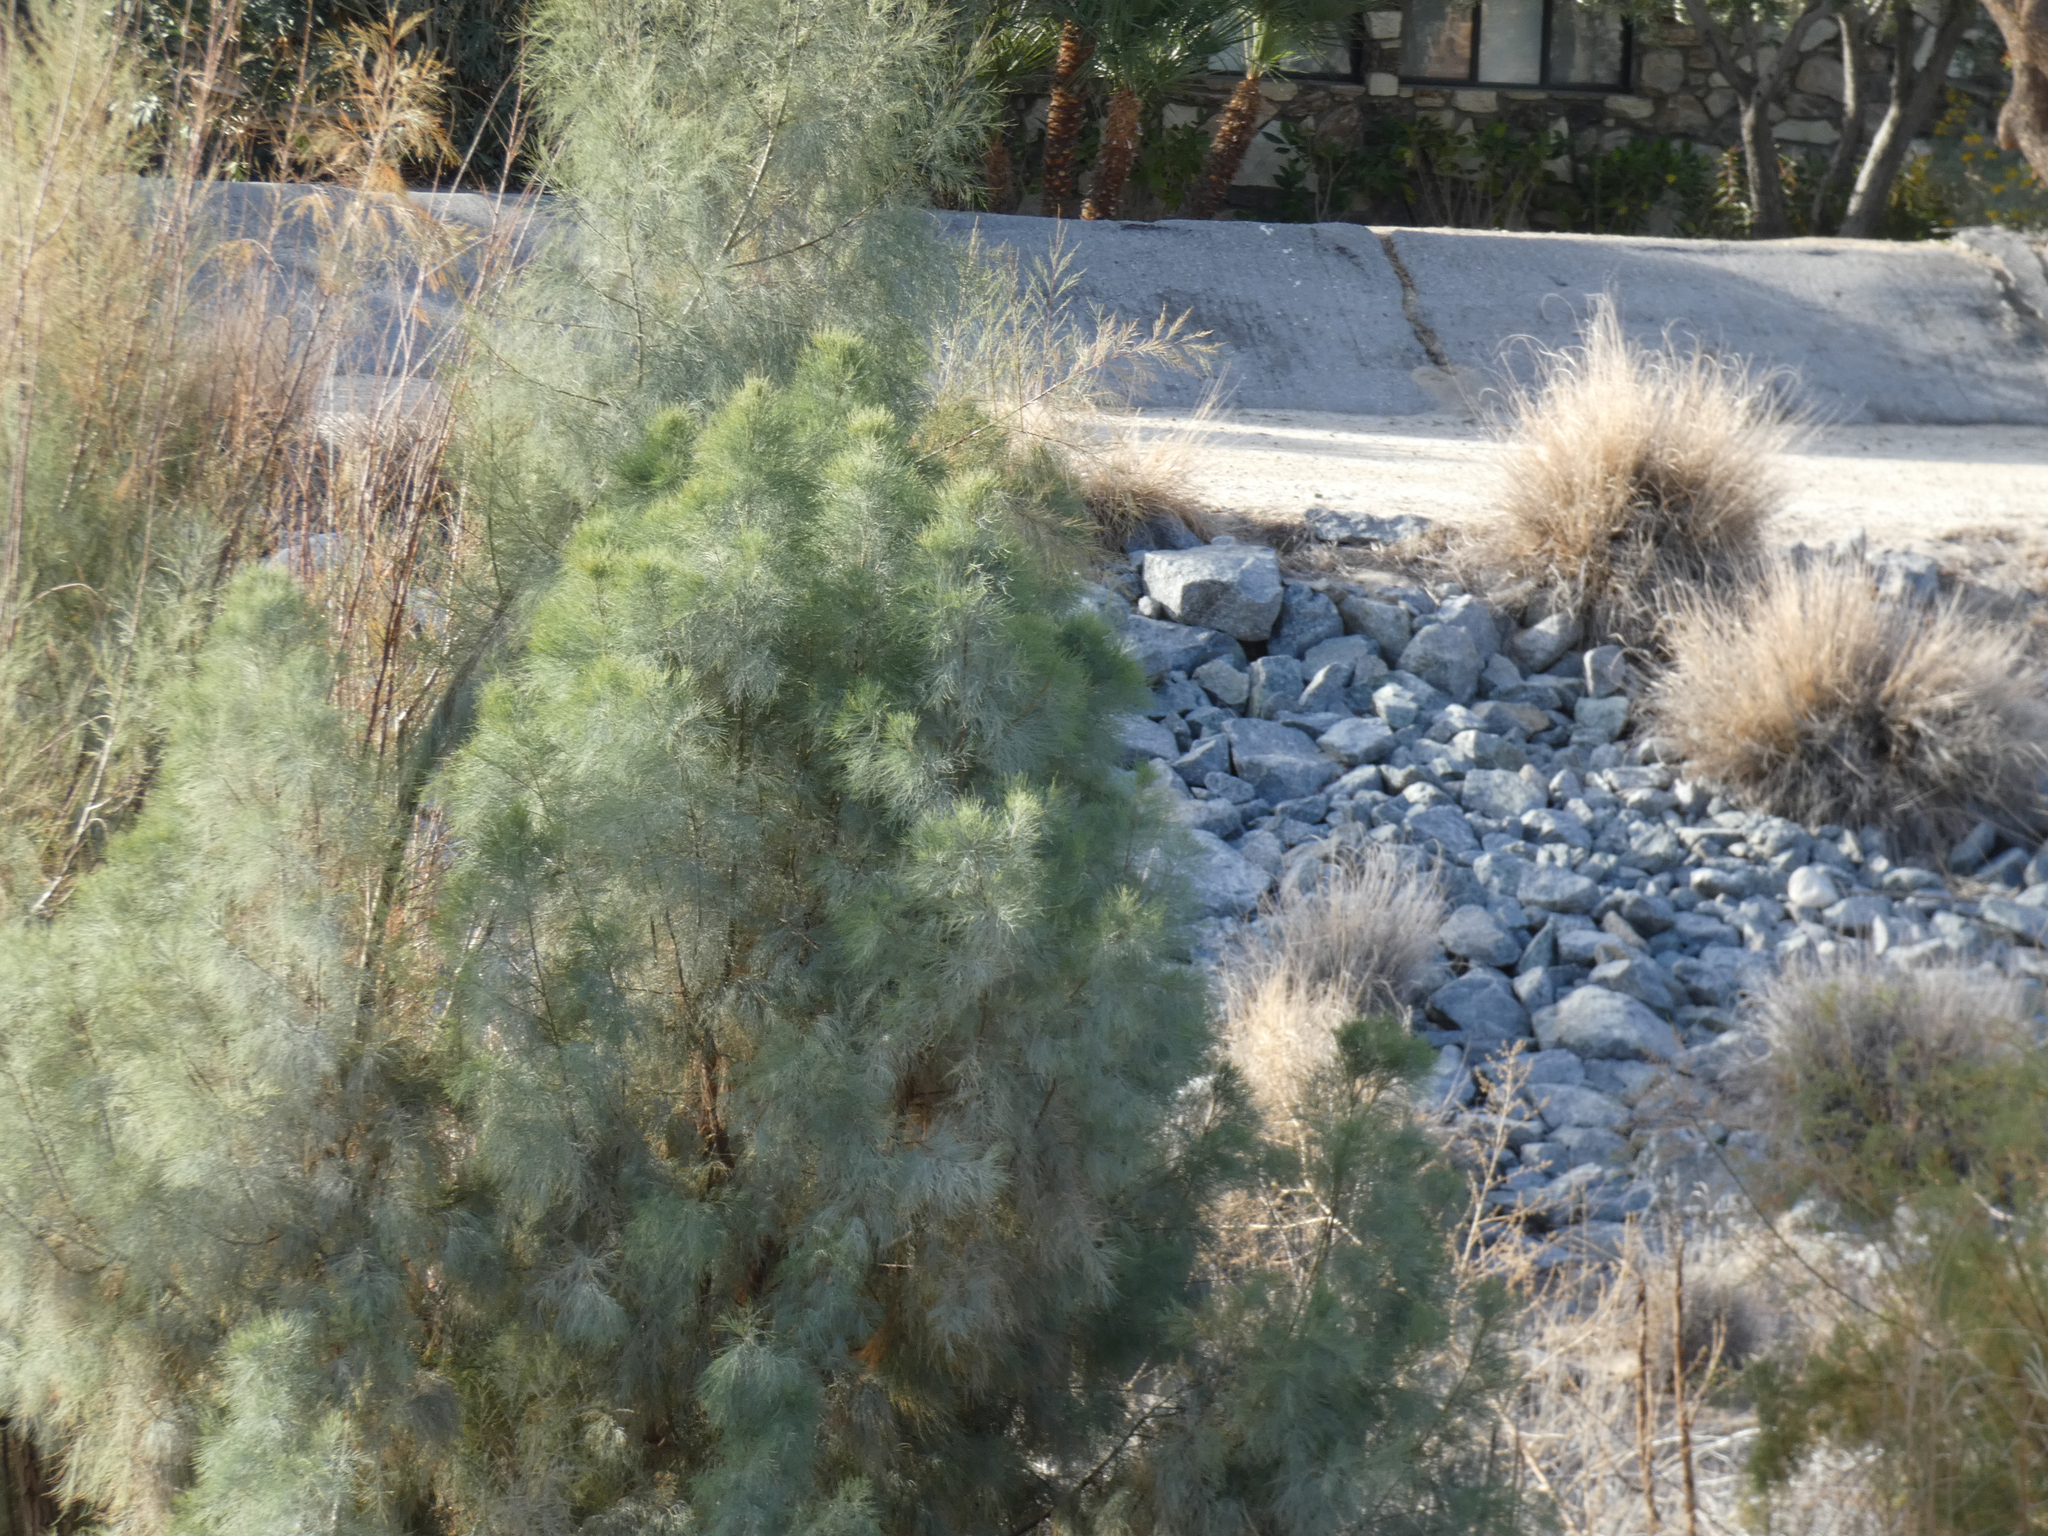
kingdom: Plantae
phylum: Tracheophyta
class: Magnoliopsida
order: Caryophyllales
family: Tamaricaceae
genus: Tamarix
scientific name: Tamarix aphylla
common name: Athel tamarisk
